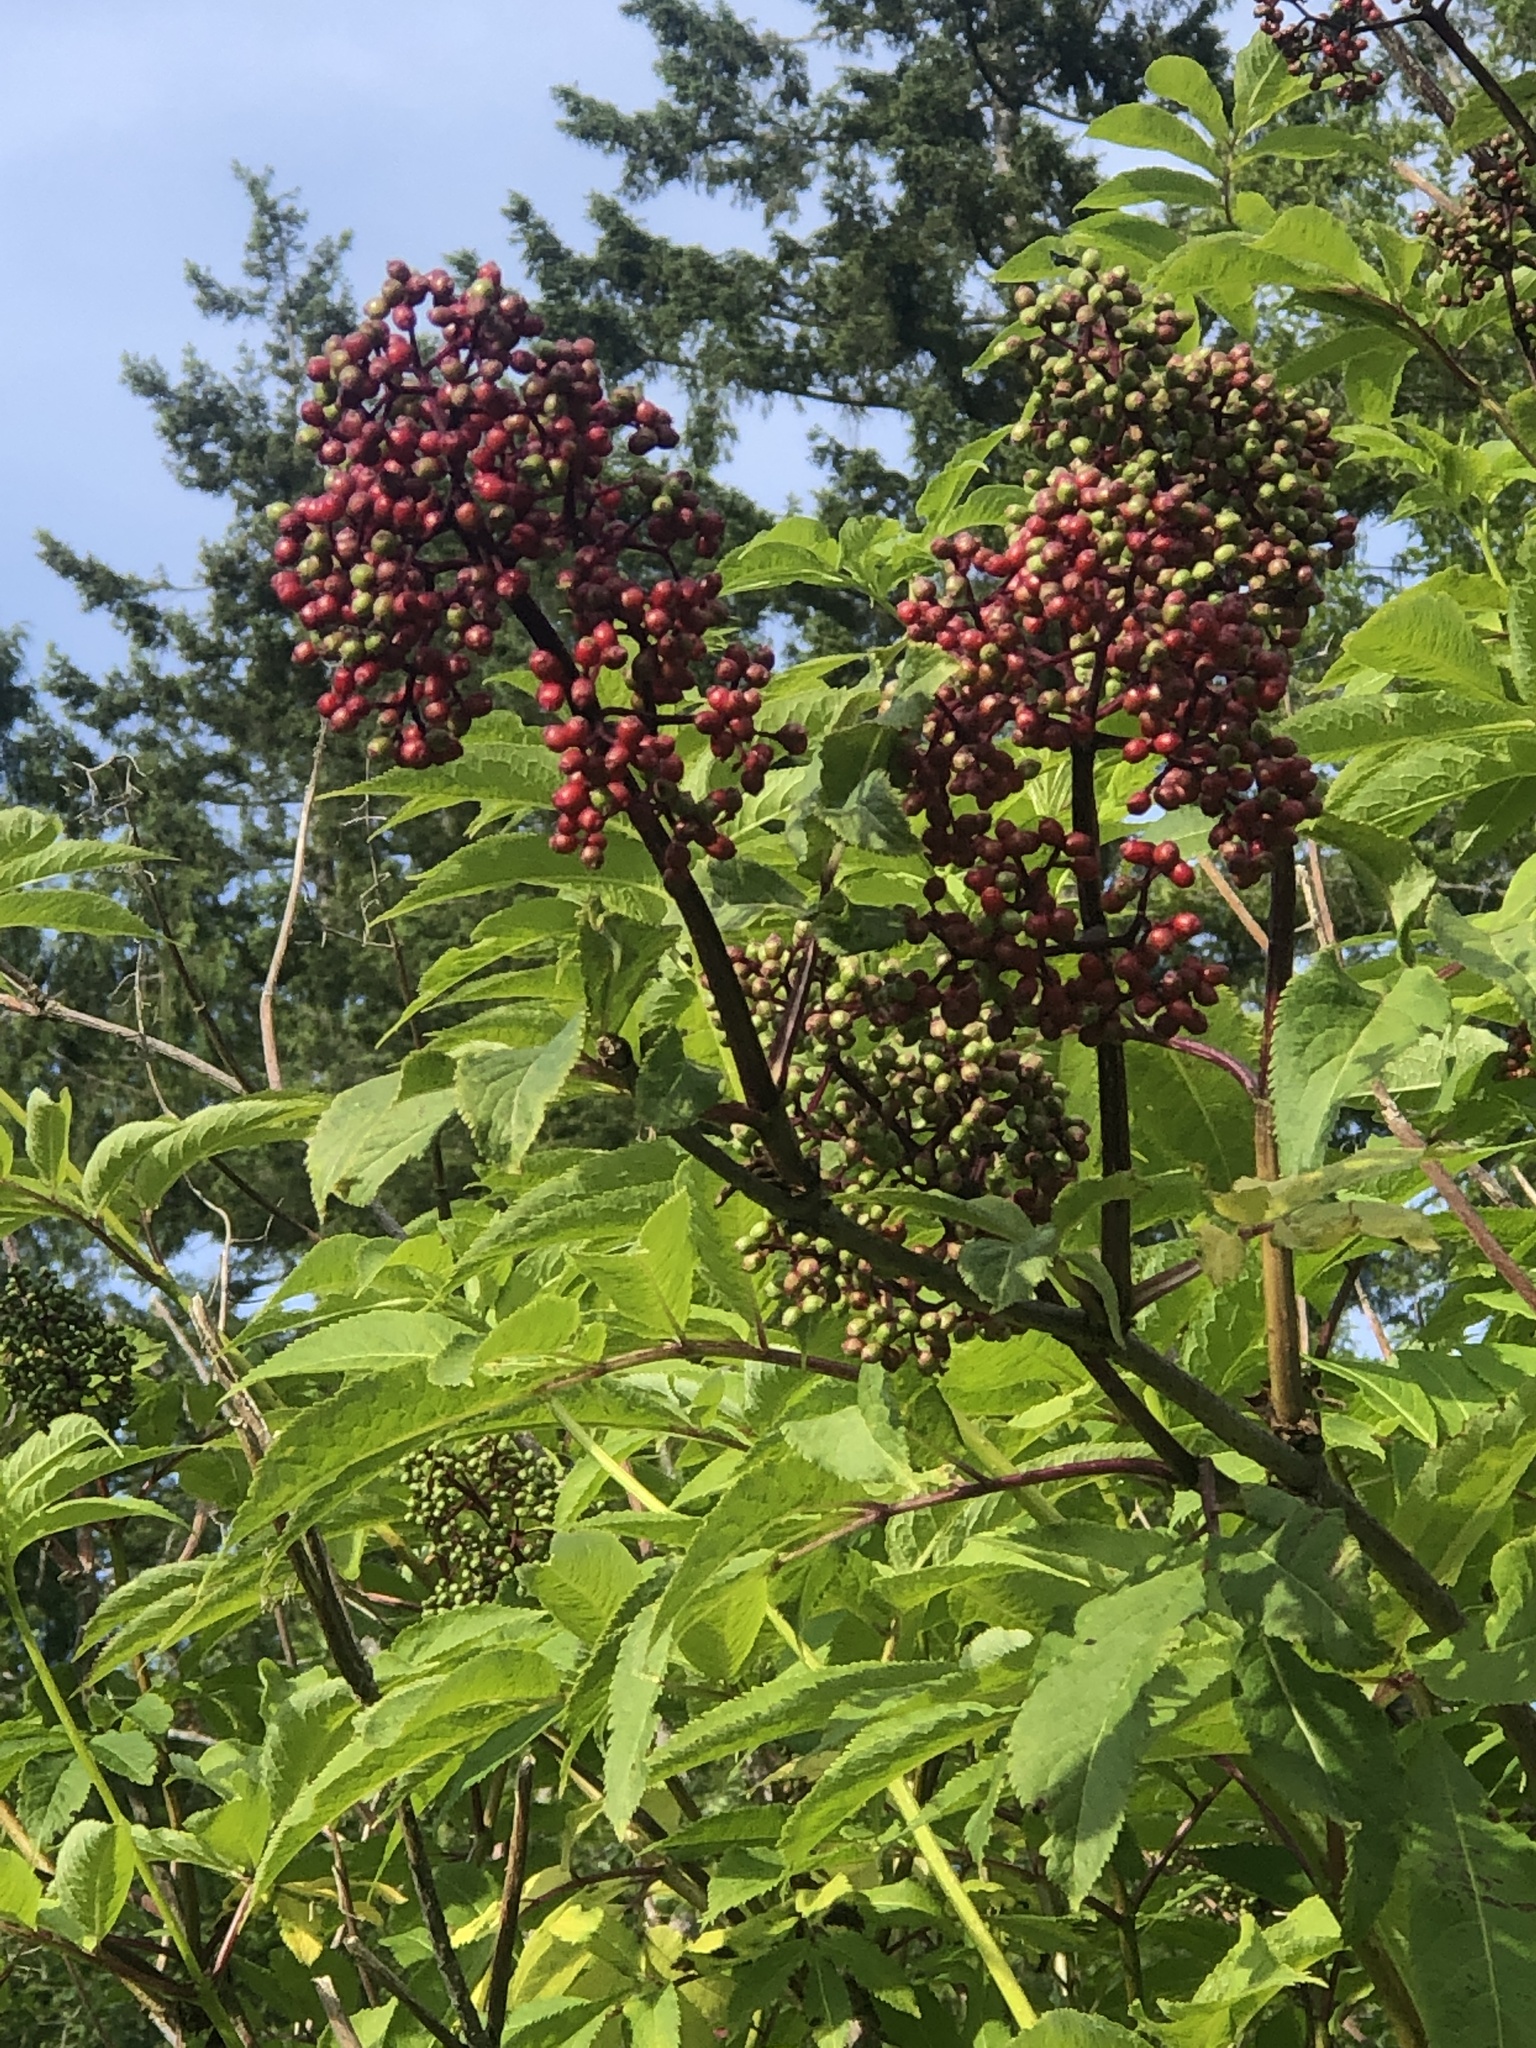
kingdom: Plantae
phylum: Tracheophyta
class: Magnoliopsida
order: Dipsacales
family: Viburnaceae
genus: Sambucus
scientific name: Sambucus racemosa
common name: Red-berried elder
